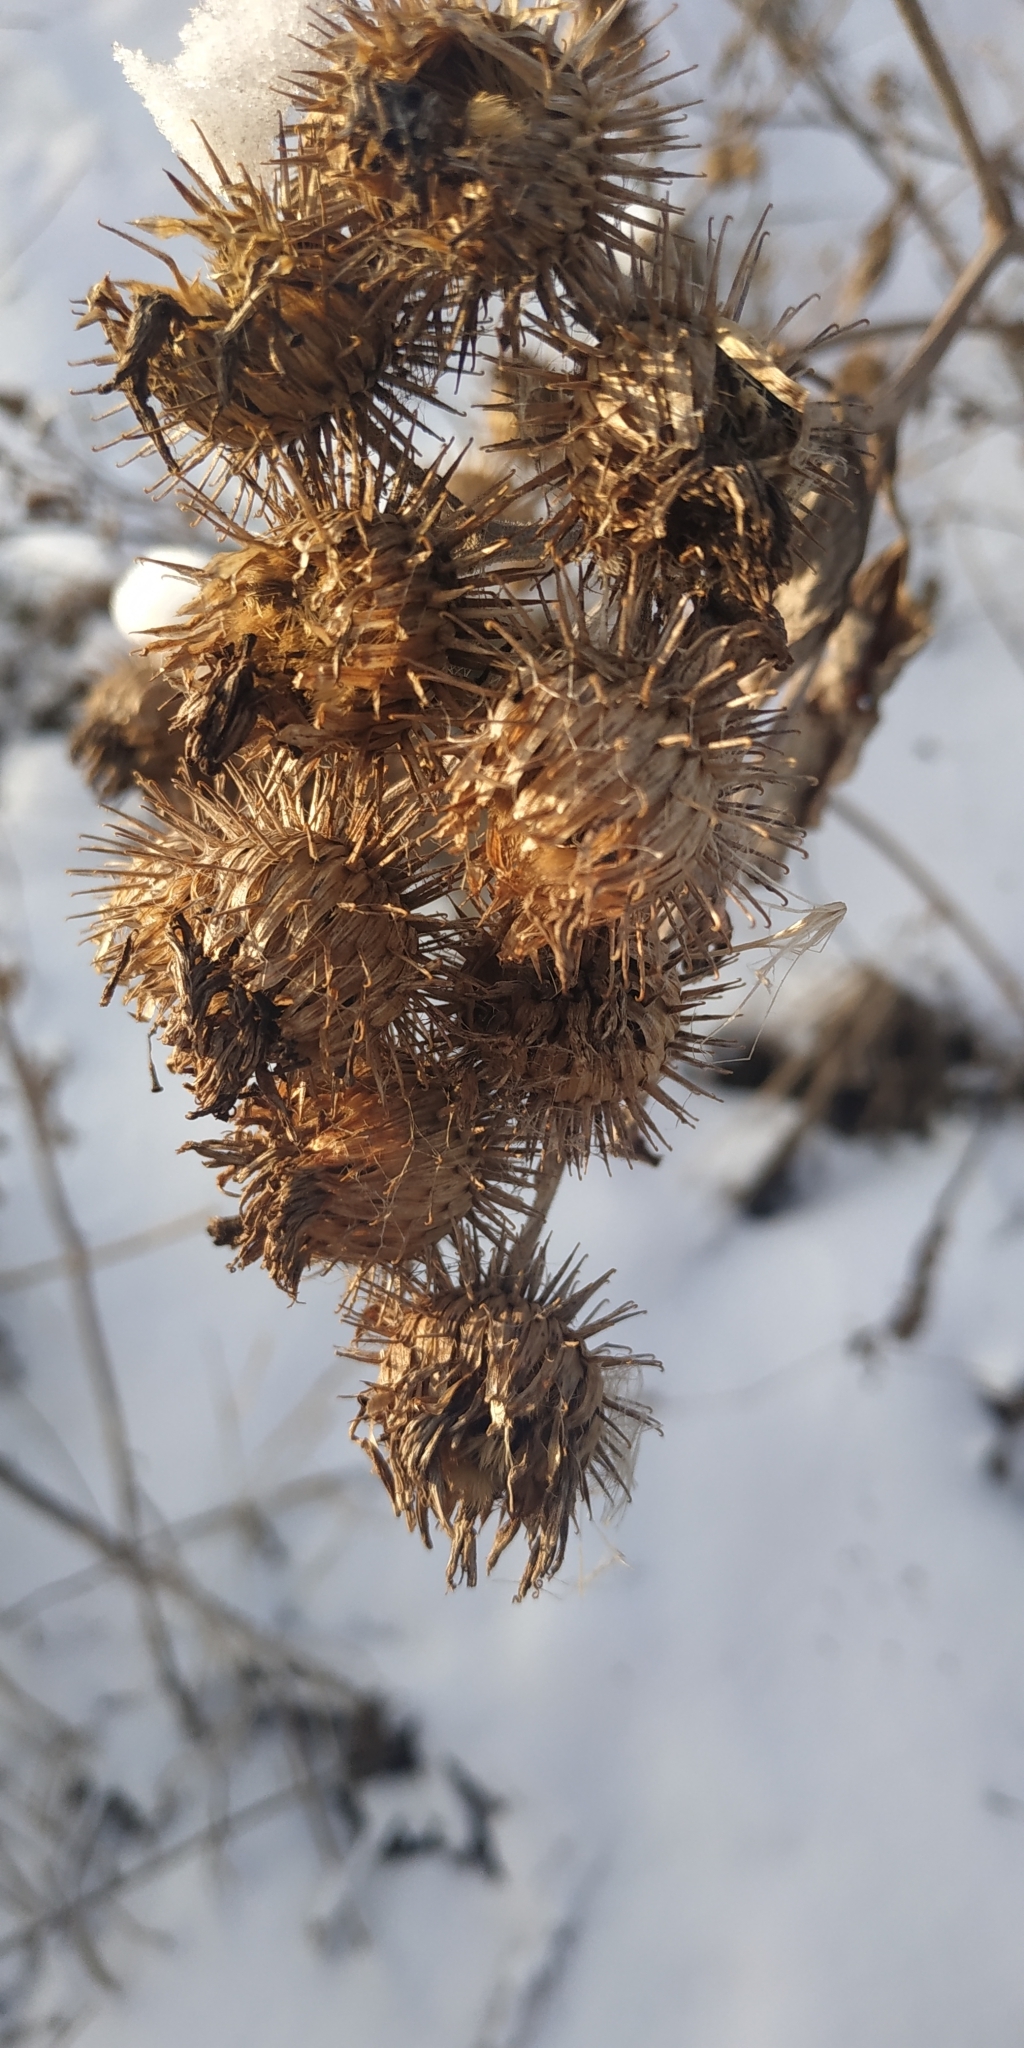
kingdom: Plantae
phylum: Tracheophyta
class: Magnoliopsida
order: Asterales
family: Asteraceae
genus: Arctium
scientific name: Arctium tomentosum
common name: Woolly burdock
